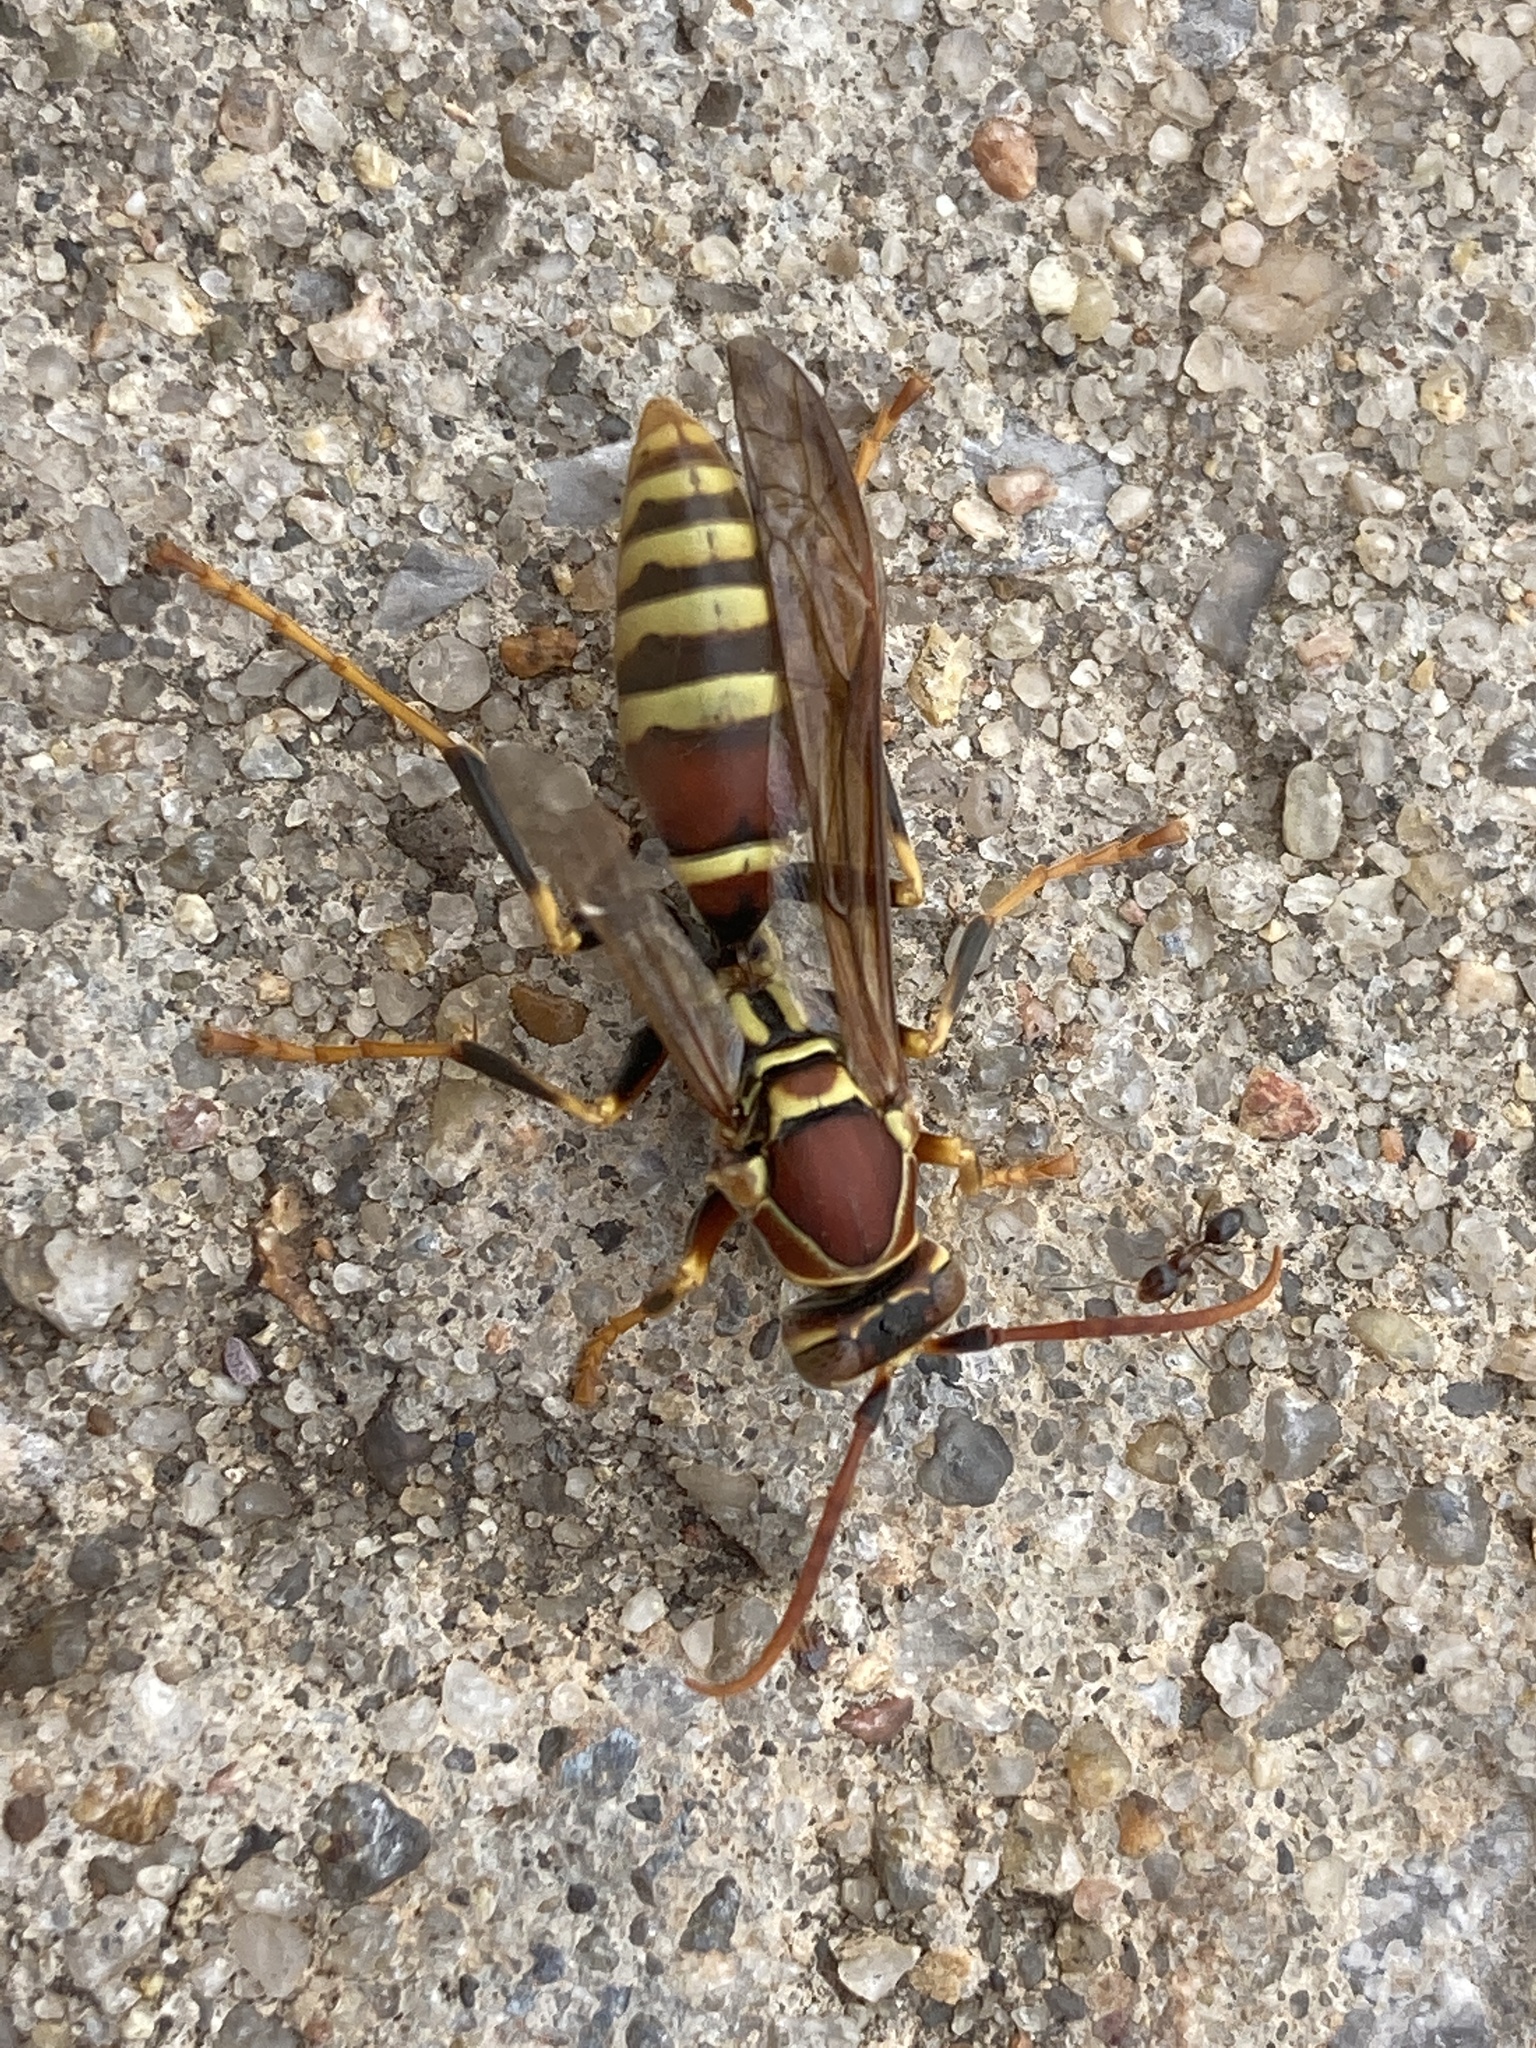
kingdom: Animalia
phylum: Arthropoda
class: Insecta
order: Hymenoptera
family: Eumenidae
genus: Polistes
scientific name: Polistes exclamans
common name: Paper wasp
